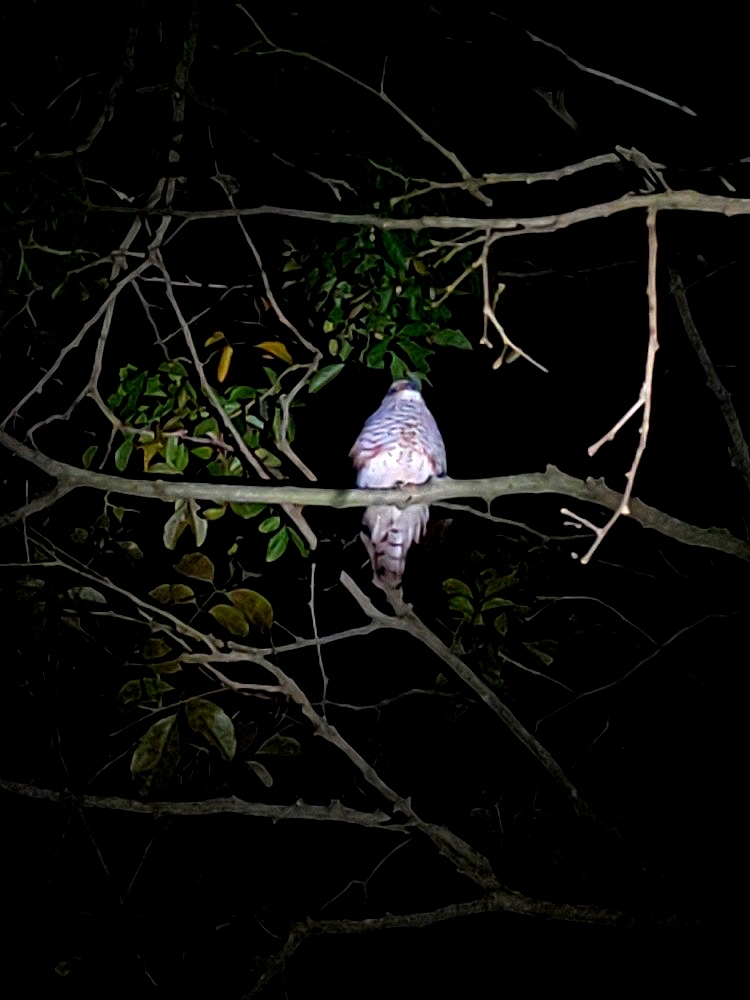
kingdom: Animalia
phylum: Chordata
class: Aves
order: Accipitriformes
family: Accipitridae
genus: Pernis
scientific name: Pernis ptilorhynchus
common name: Crested honey buzzard
